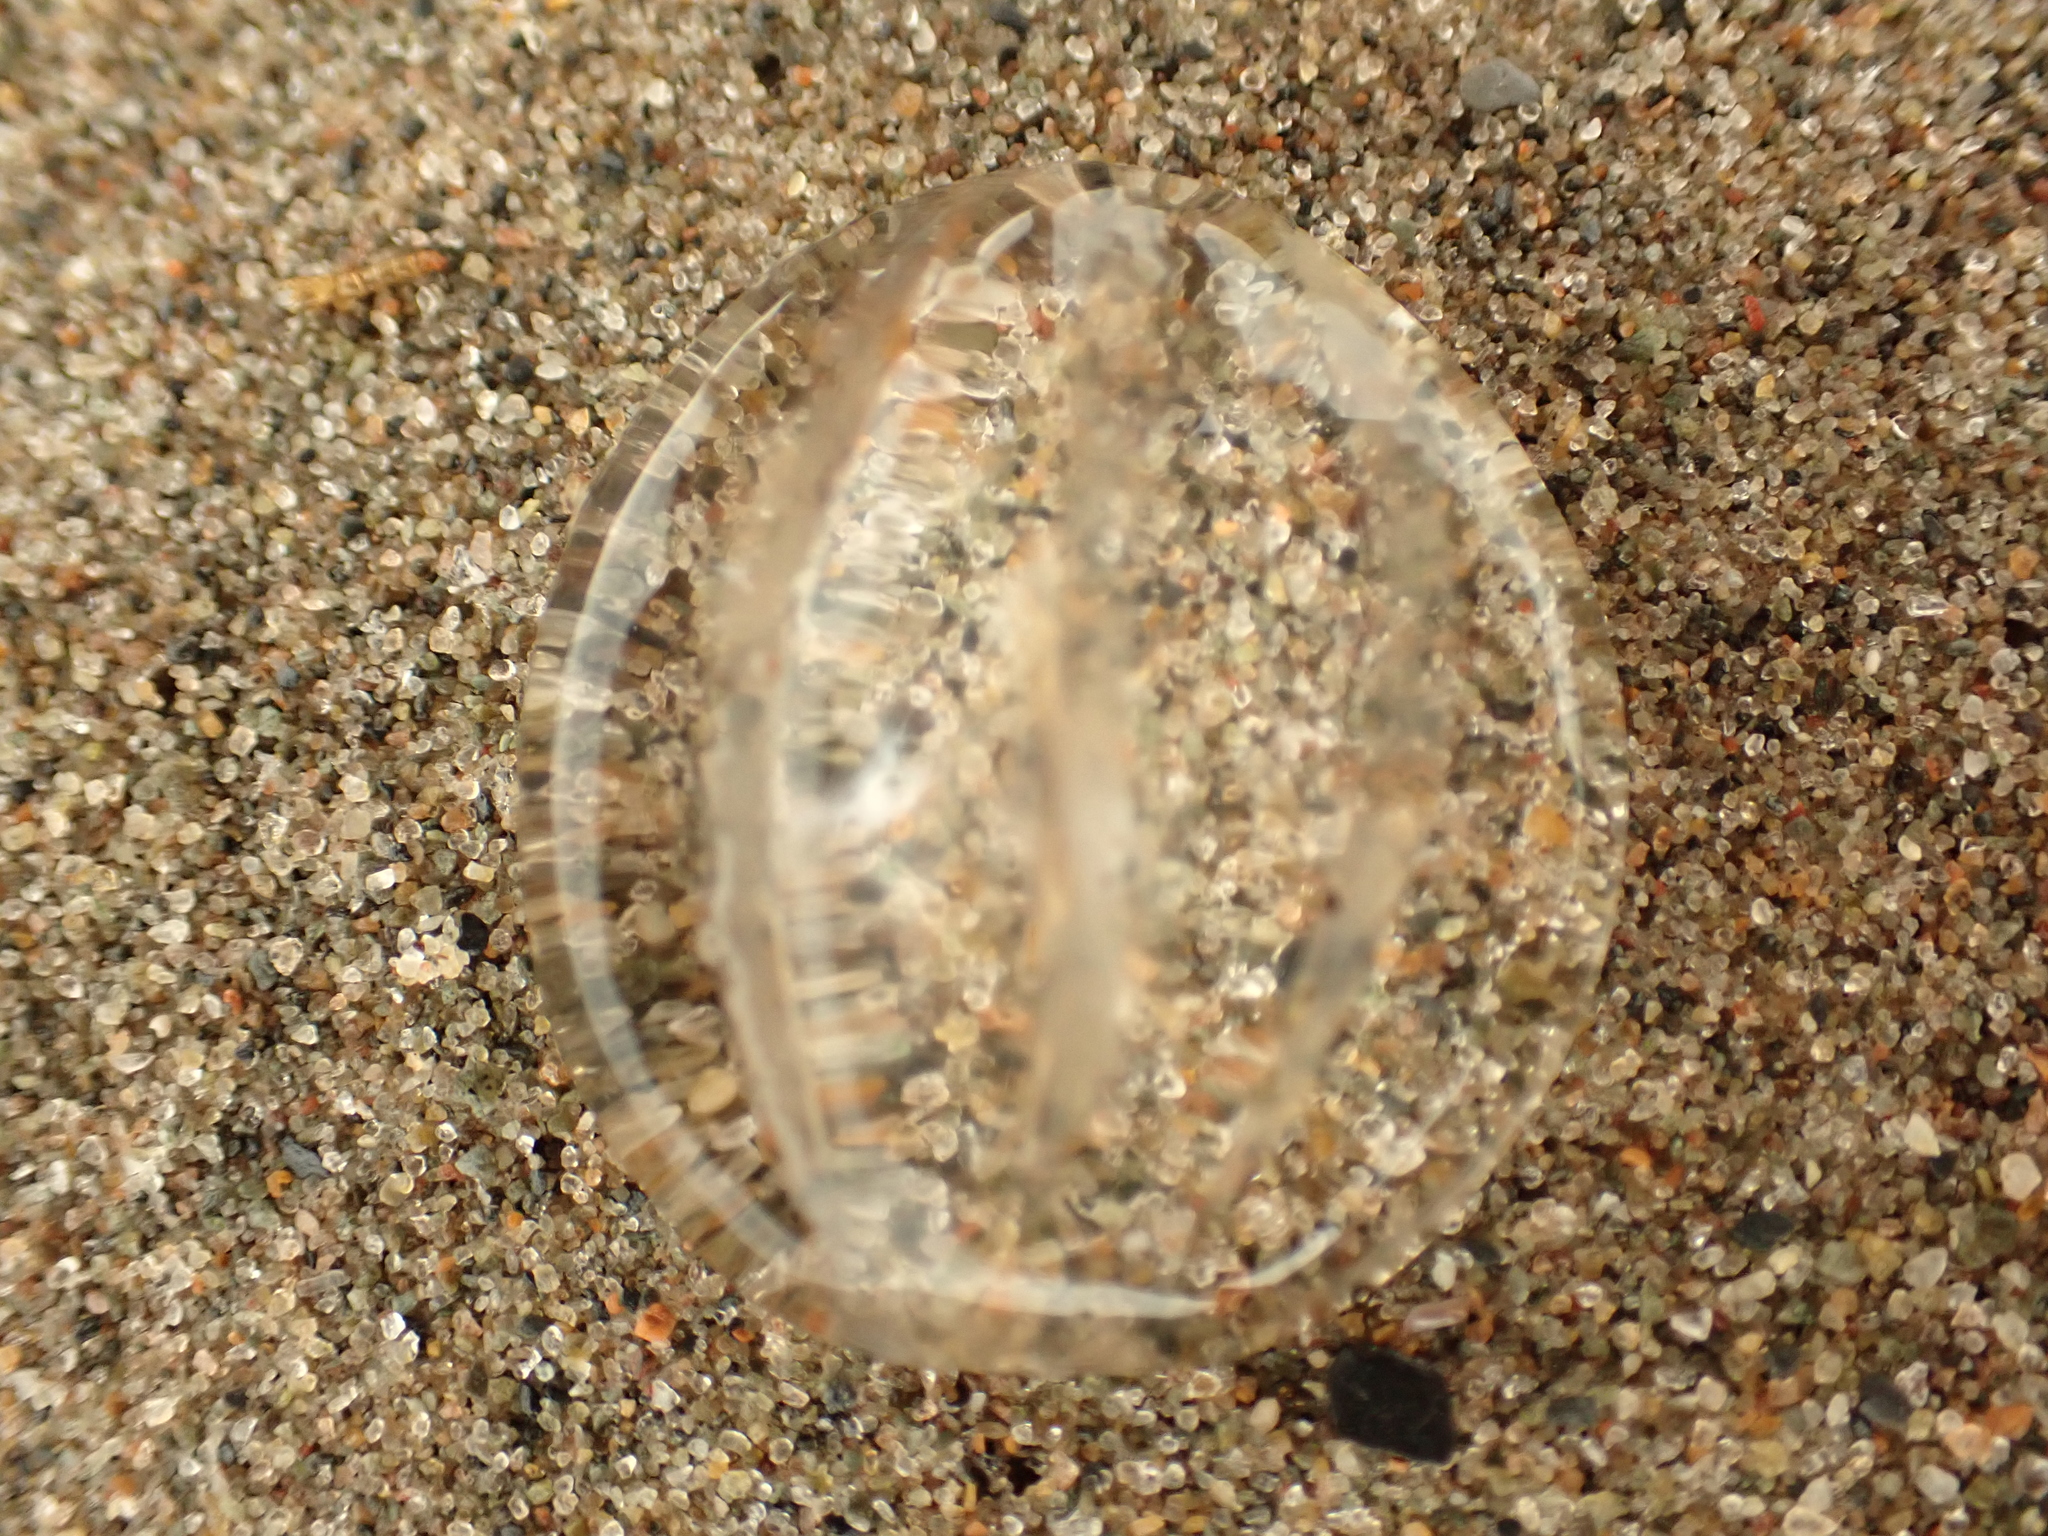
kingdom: Animalia
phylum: Ctenophora
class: Tentaculata
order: Cydippida
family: Pleurobrachiidae
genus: Pleurobrachia
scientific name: Pleurobrachia pileus
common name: Sea gooseberry
